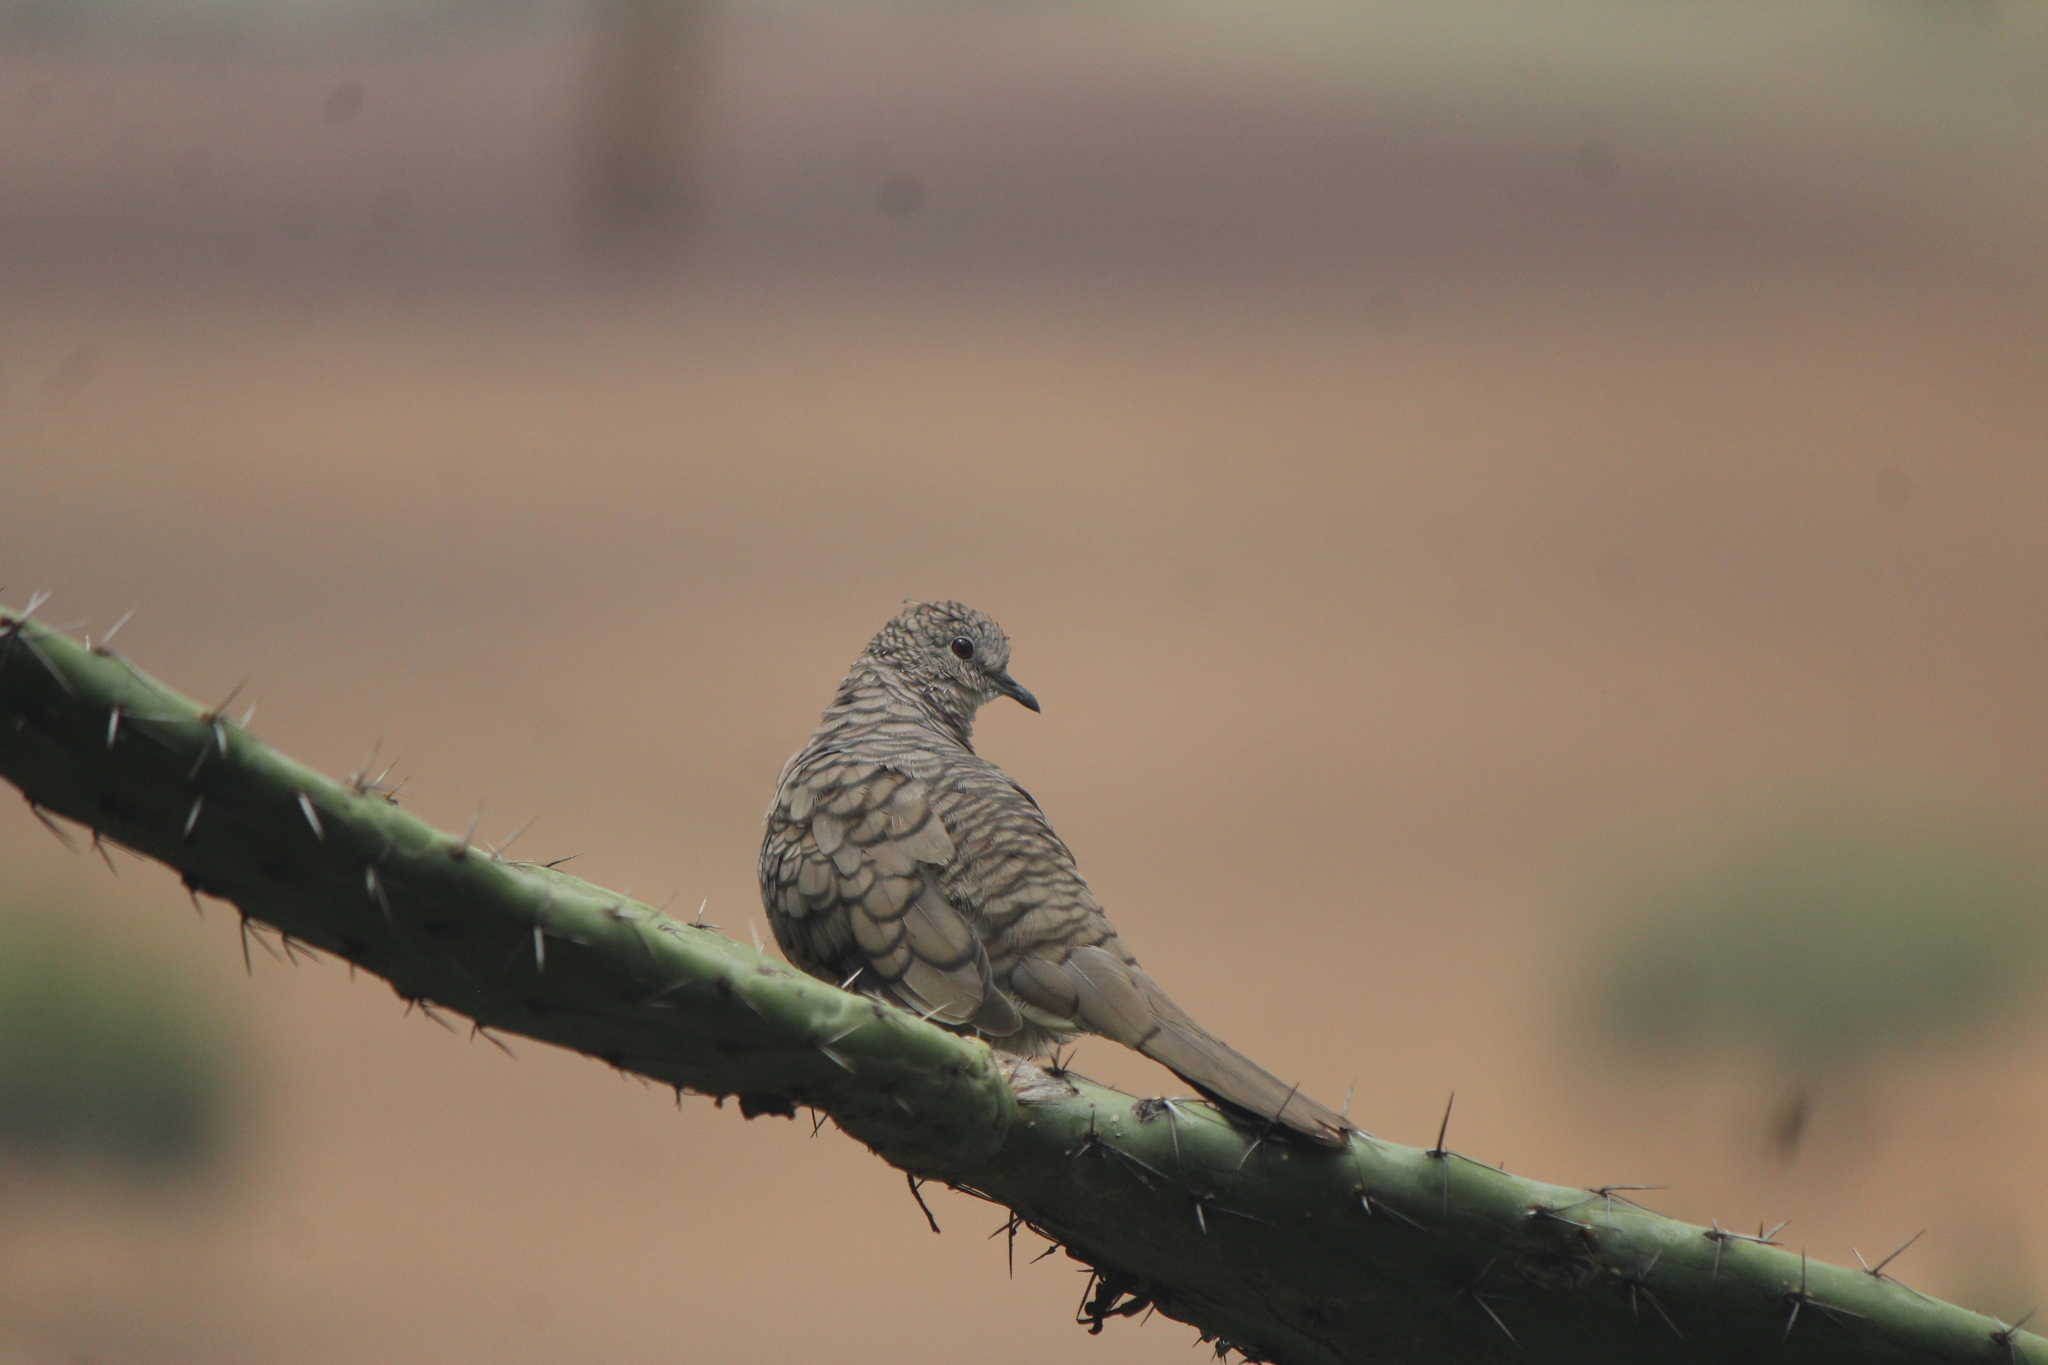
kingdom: Animalia
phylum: Chordata
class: Aves
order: Columbiformes
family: Columbidae
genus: Columbina
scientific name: Columbina inca
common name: Inca dove
